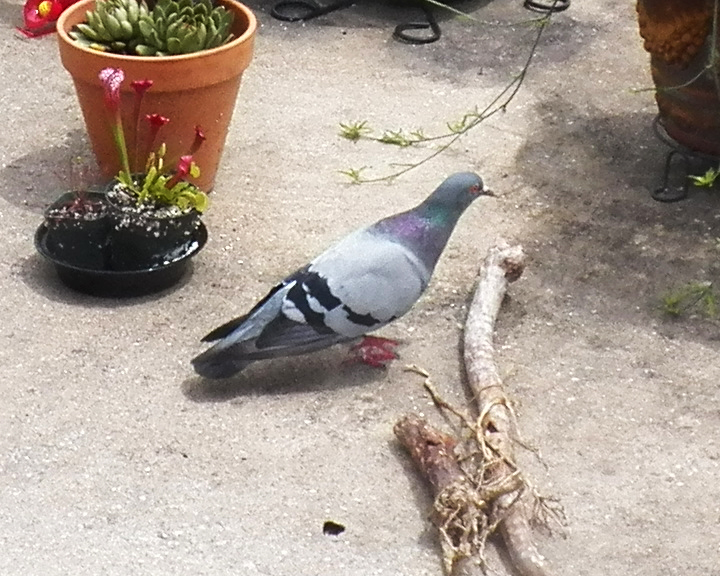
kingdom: Animalia
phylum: Chordata
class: Aves
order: Columbiformes
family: Columbidae
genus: Columba
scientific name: Columba livia
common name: Rock pigeon
